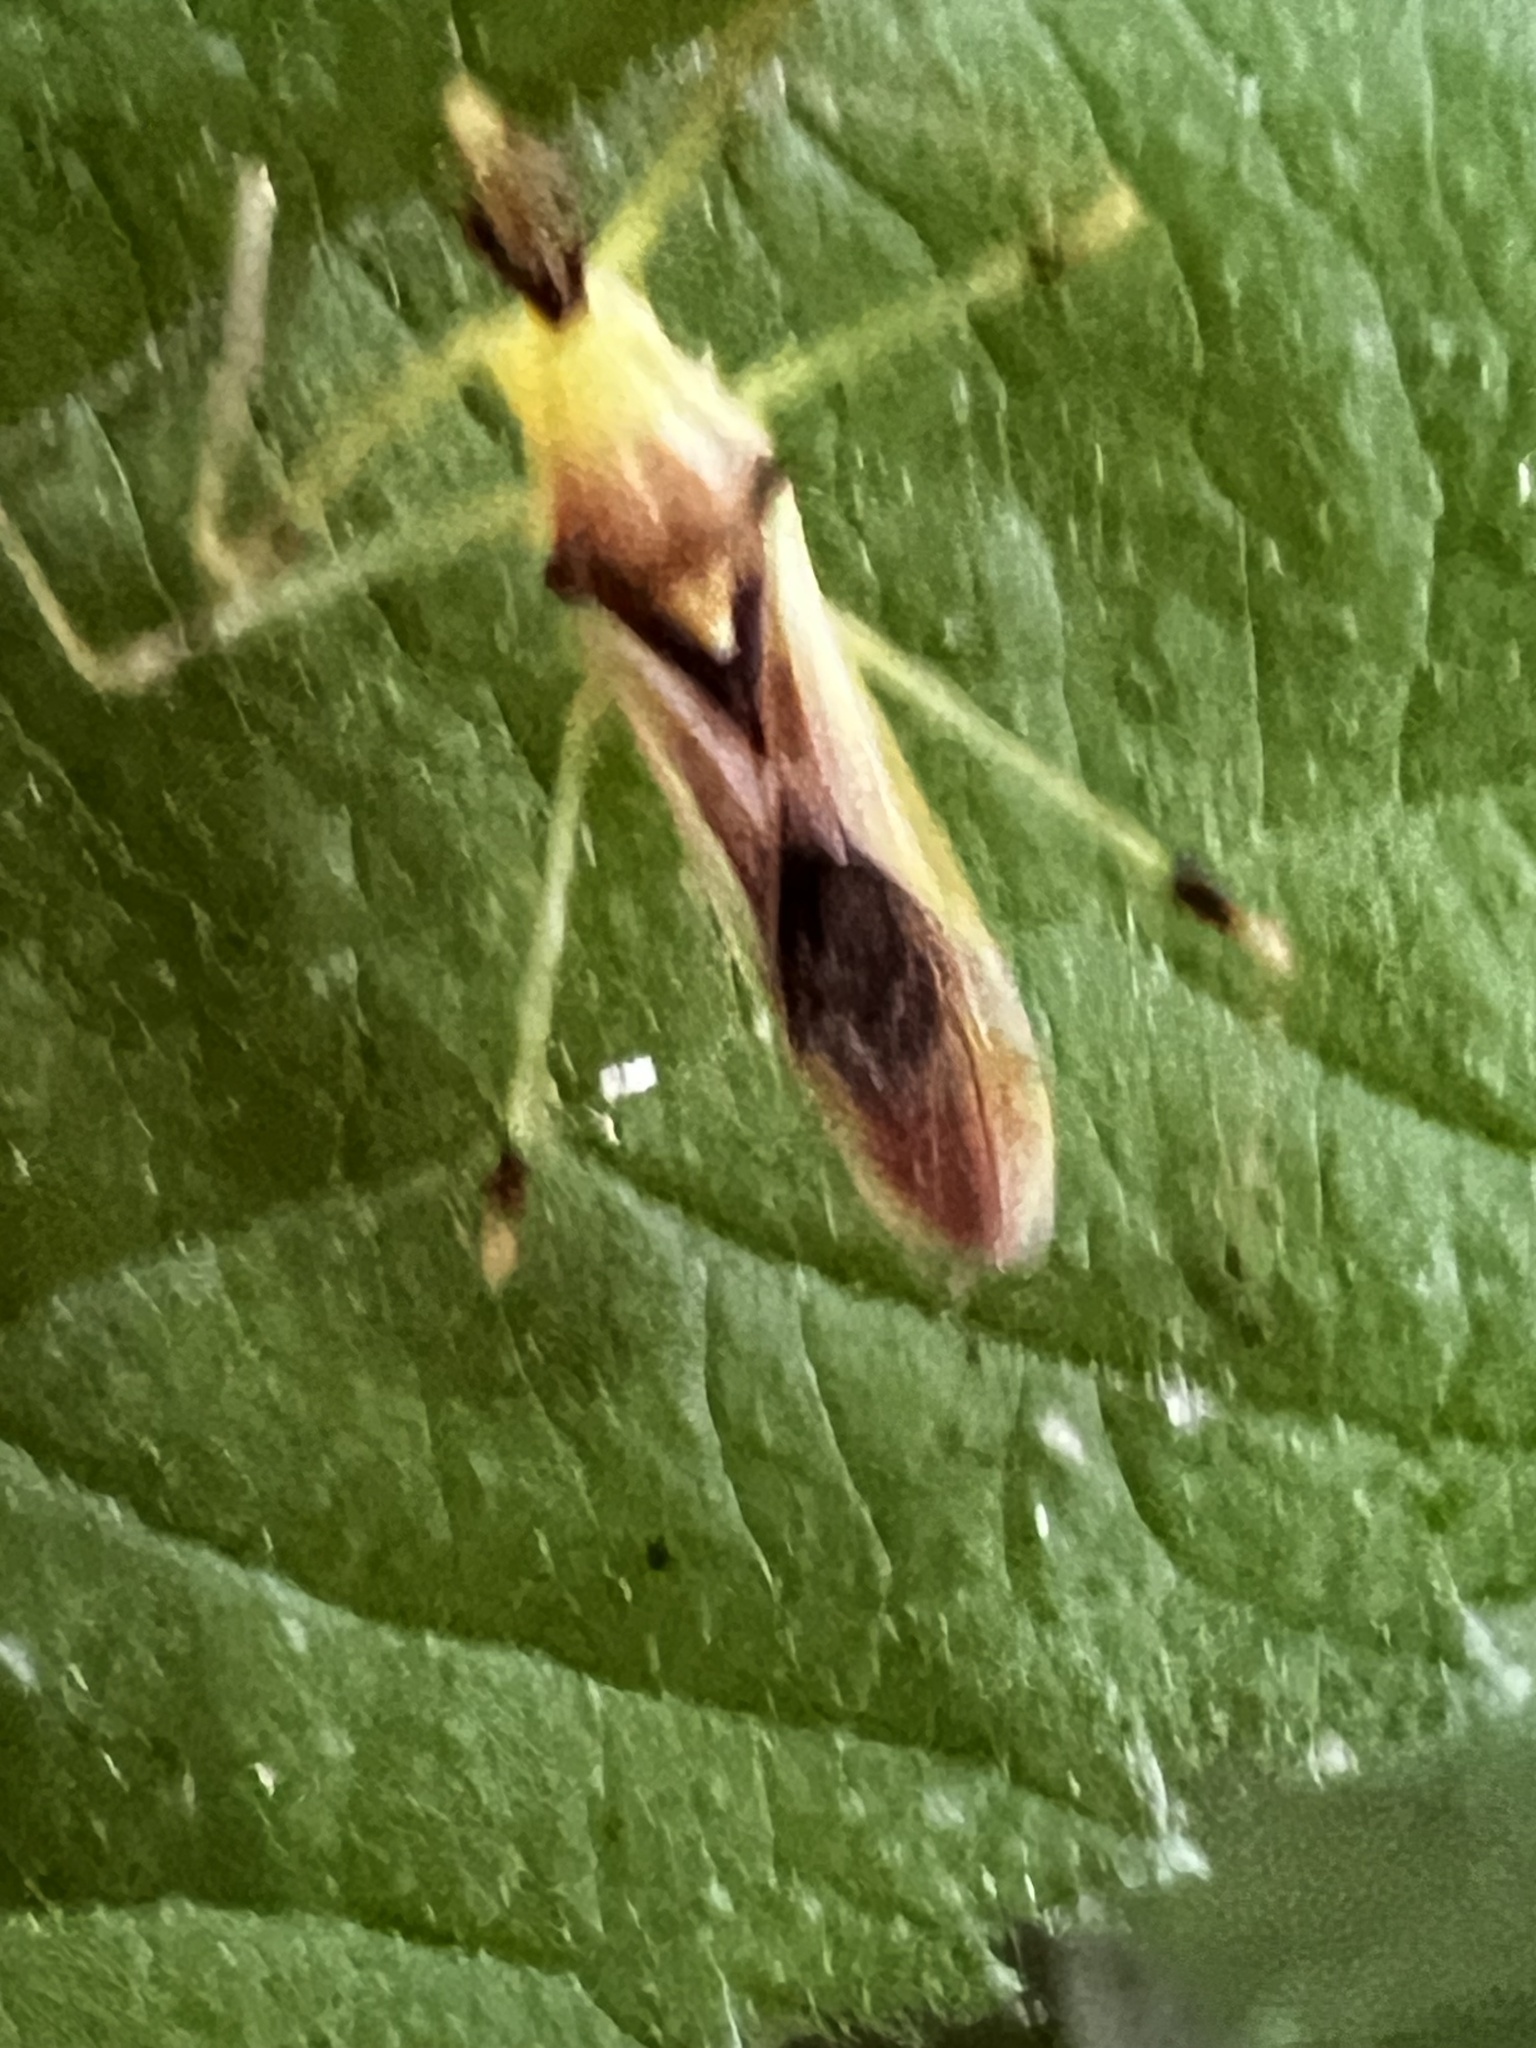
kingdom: Animalia
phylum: Arthropoda
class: Insecta
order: Hemiptera
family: Reduviidae
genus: Zelus
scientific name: Zelus luridus
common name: Pale green assassin bug
